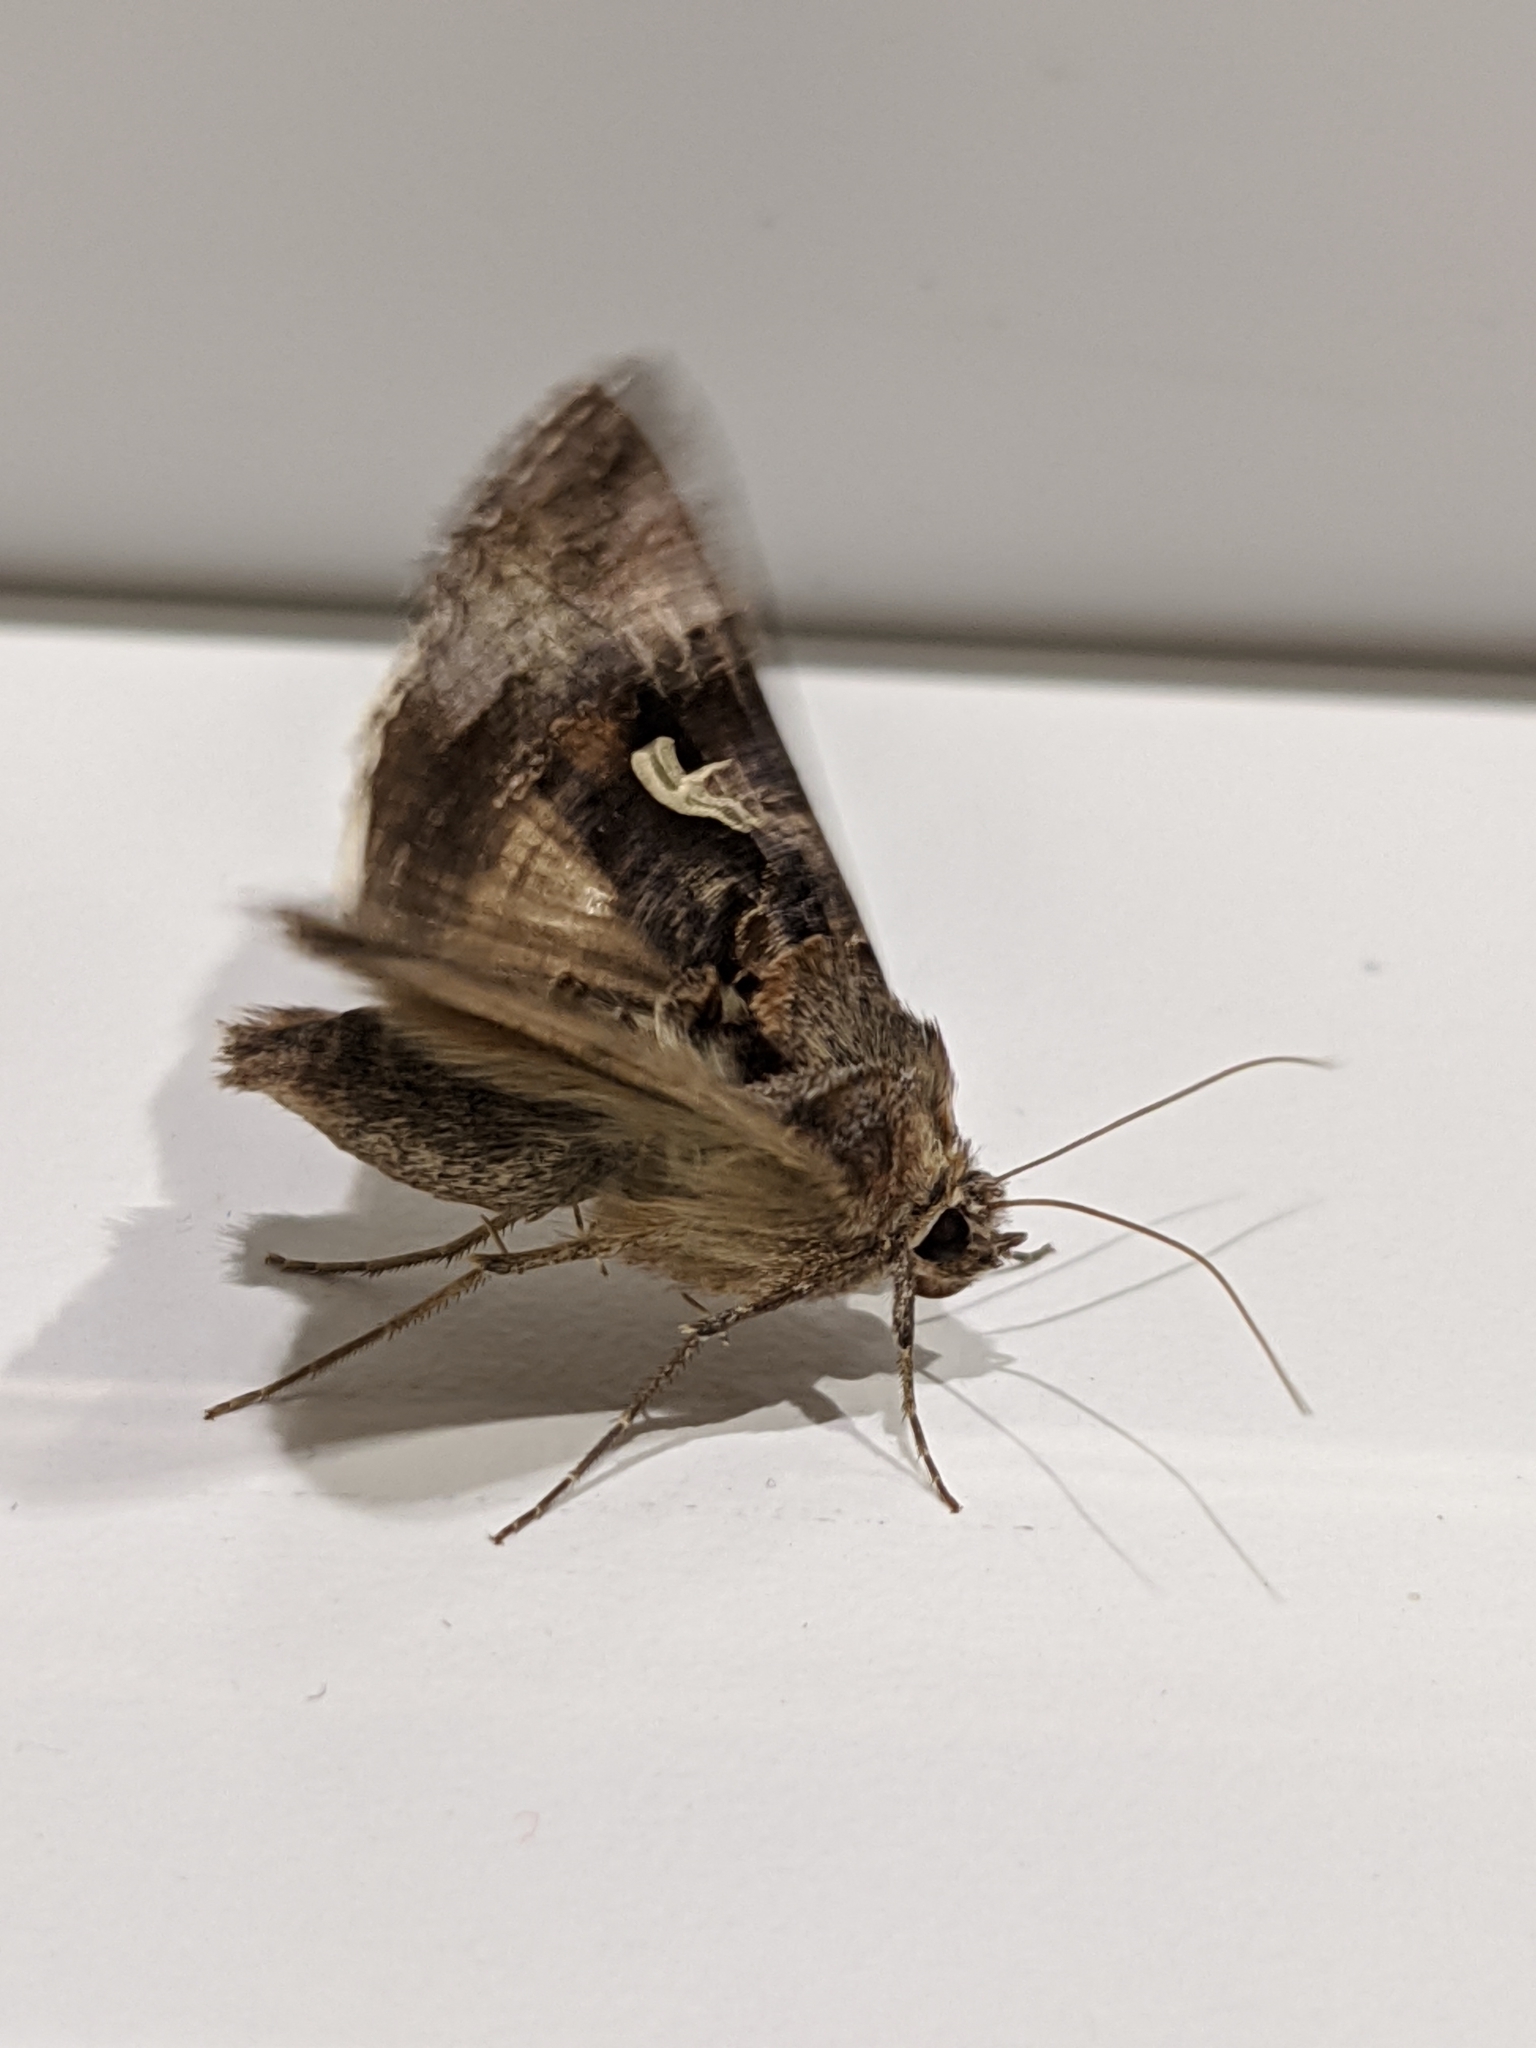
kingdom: Animalia
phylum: Arthropoda
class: Insecta
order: Lepidoptera
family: Noctuidae
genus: Autographa
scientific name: Autographa gamma
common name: Silver y
